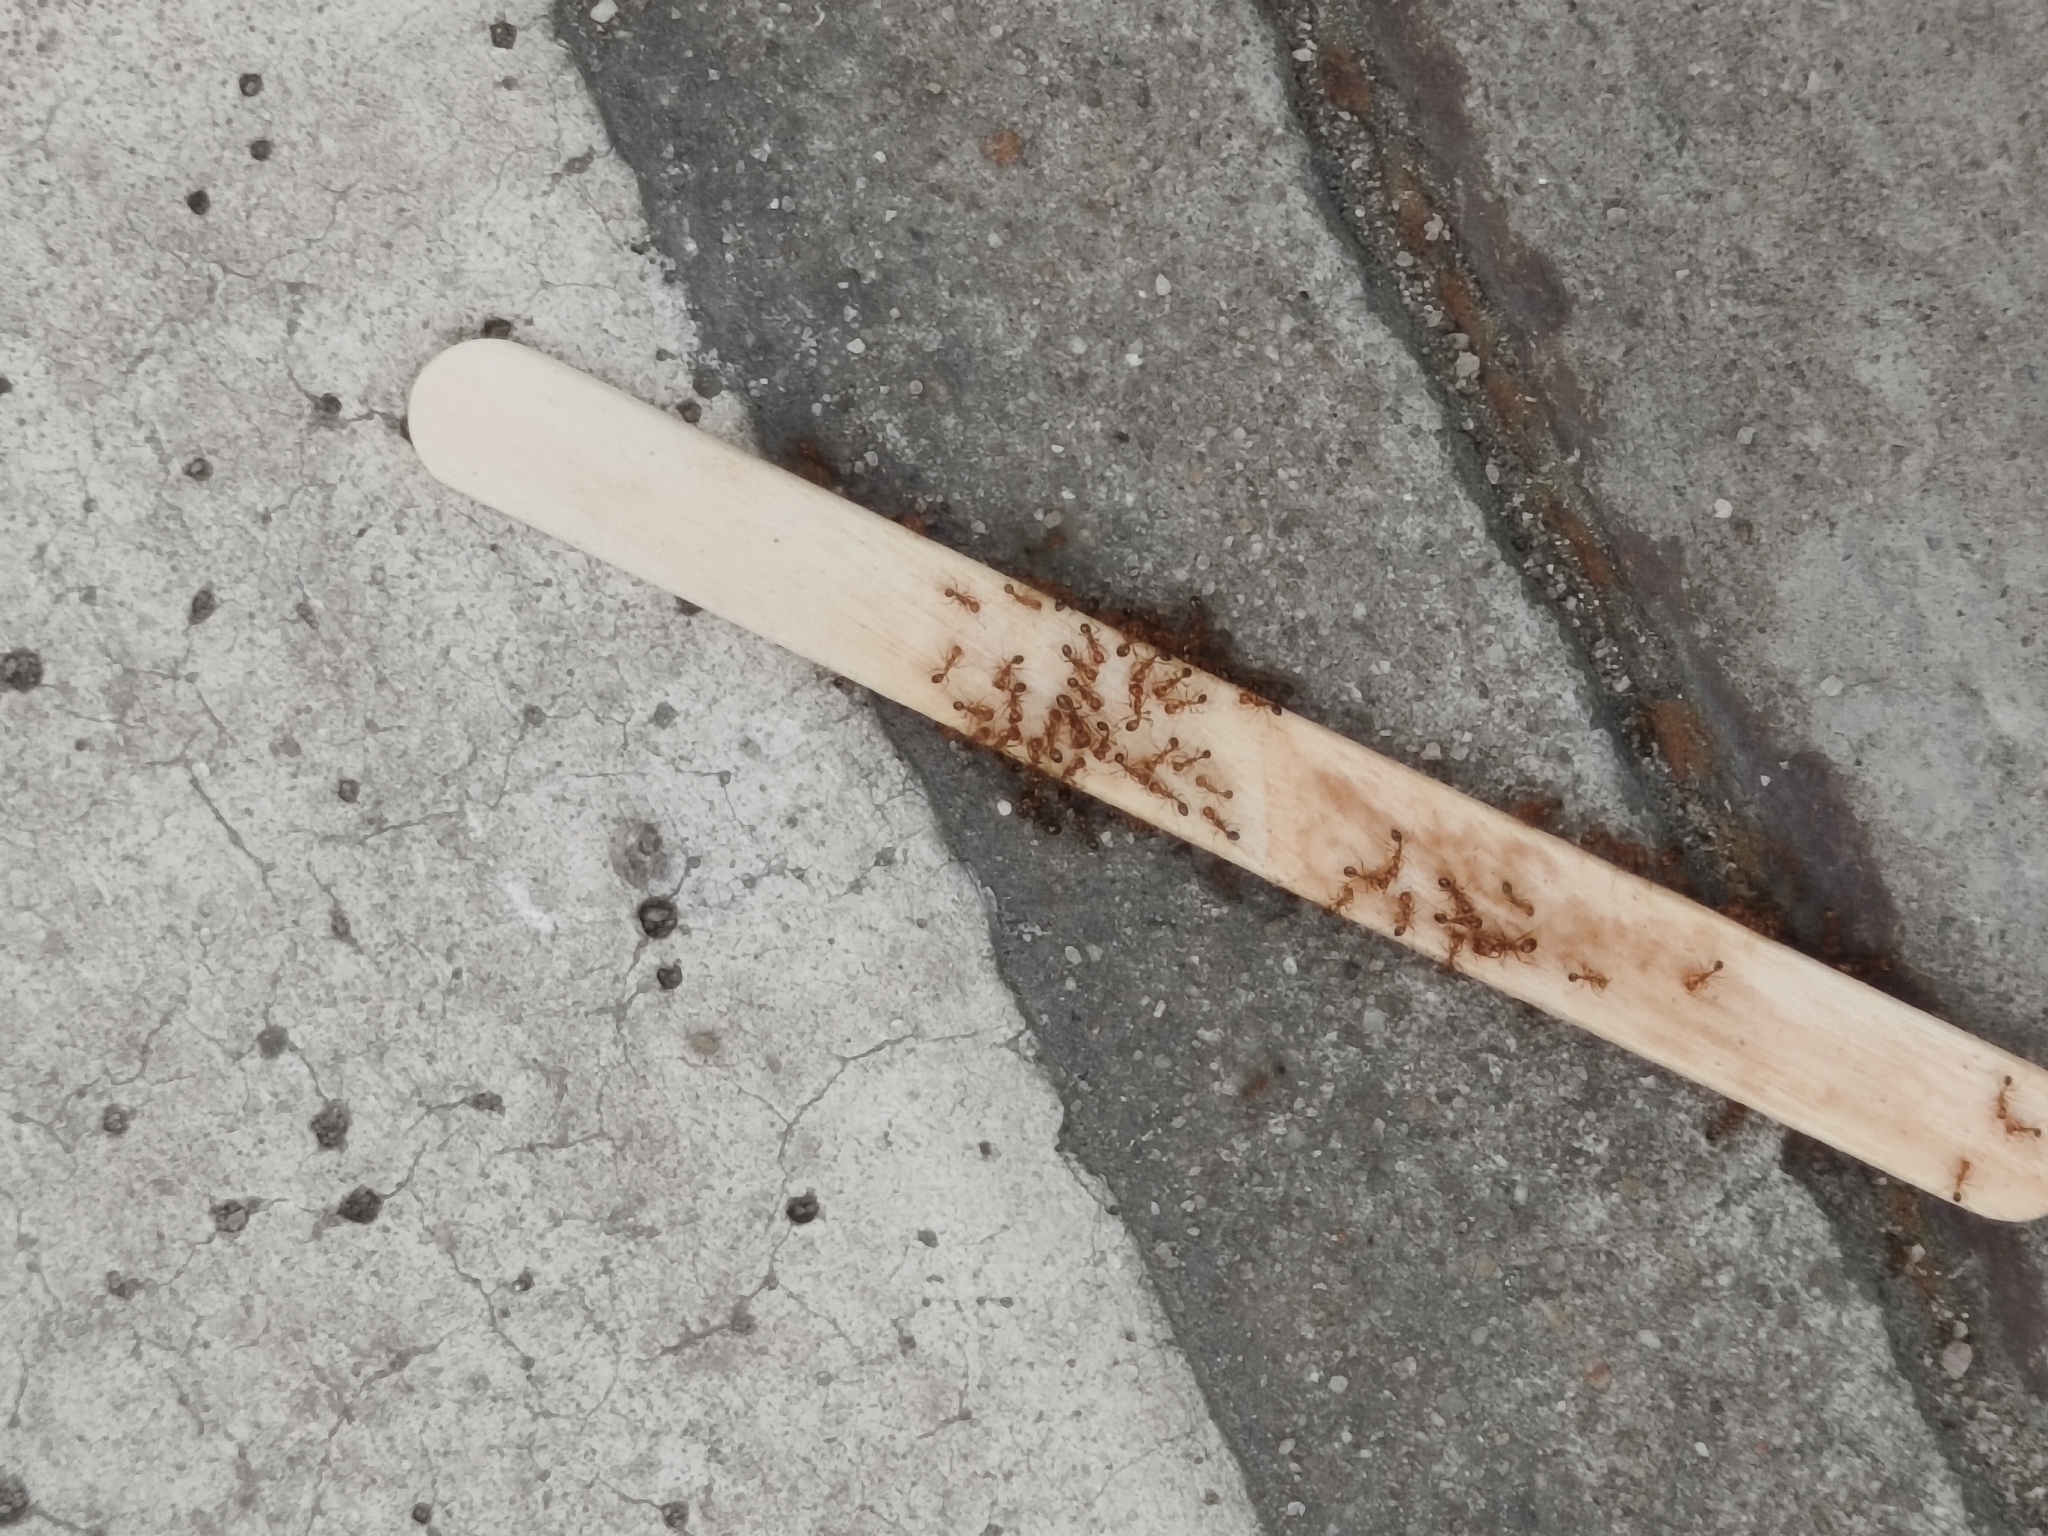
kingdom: Animalia
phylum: Arthropoda
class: Insecta
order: Hymenoptera
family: Formicidae
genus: Solenopsis
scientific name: Solenopsis geminata
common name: Tropical fire ant
